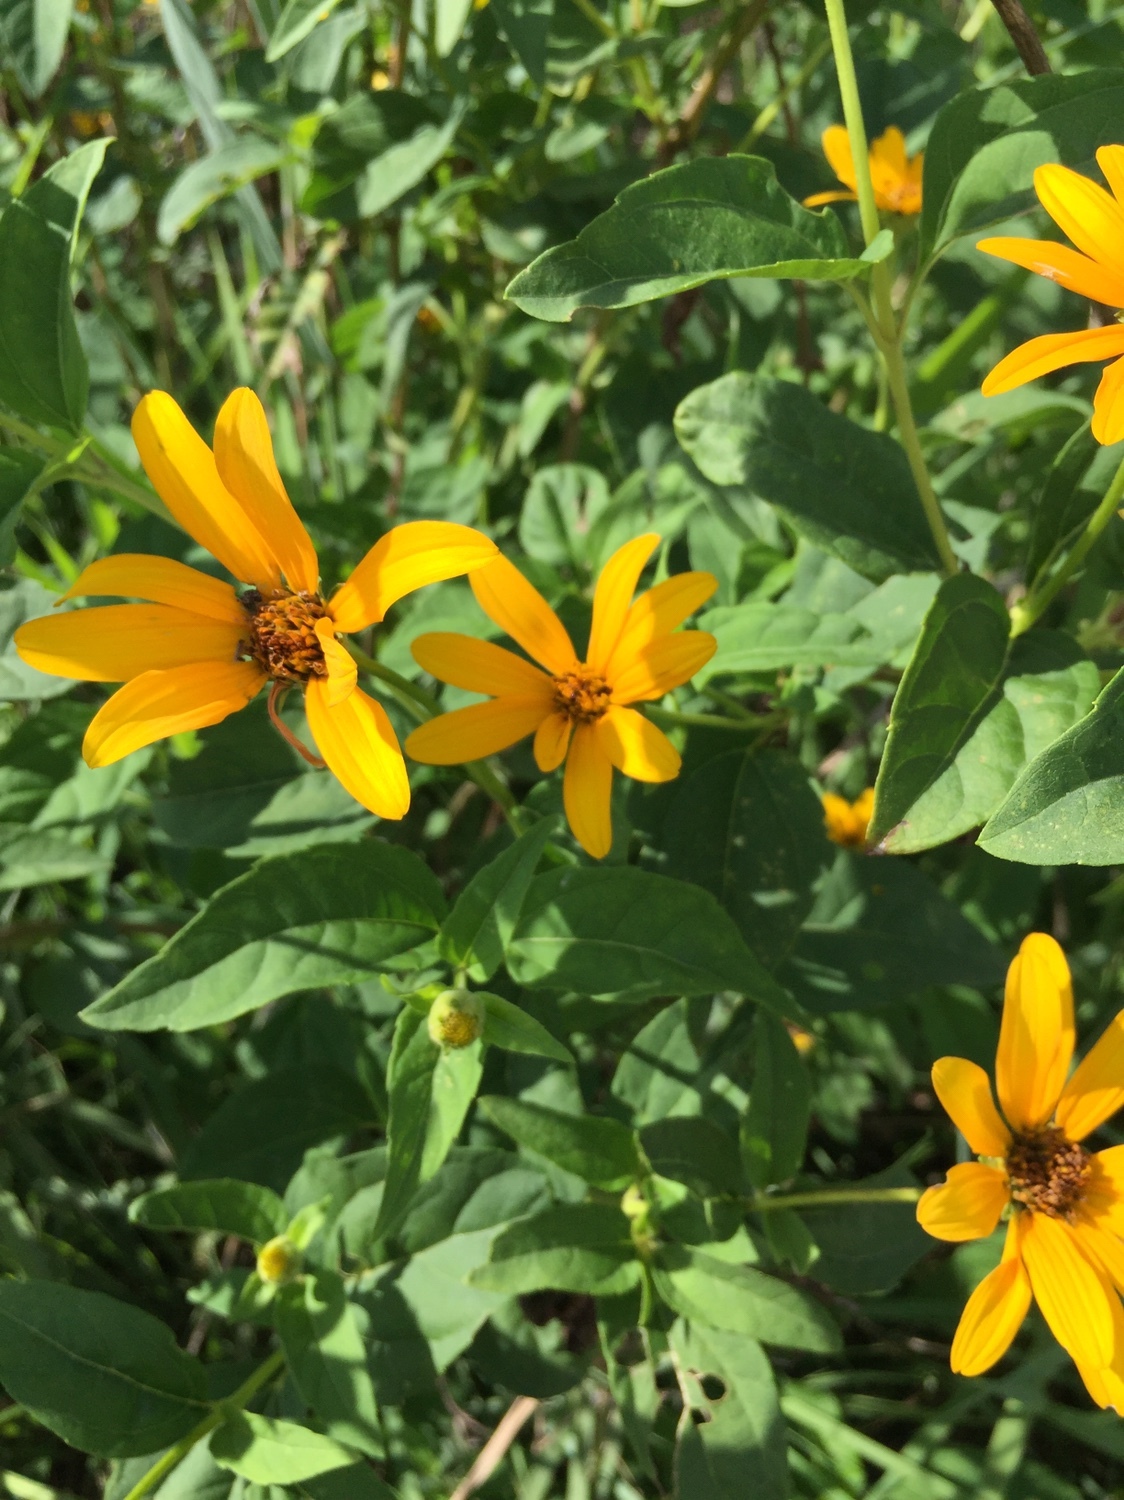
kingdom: Plantae
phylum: Tracheophyta
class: Magnoliopsida
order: Asterales
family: Asteraceae
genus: Heliopsis
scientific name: Heliopsis helianthoides
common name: False sunflower
